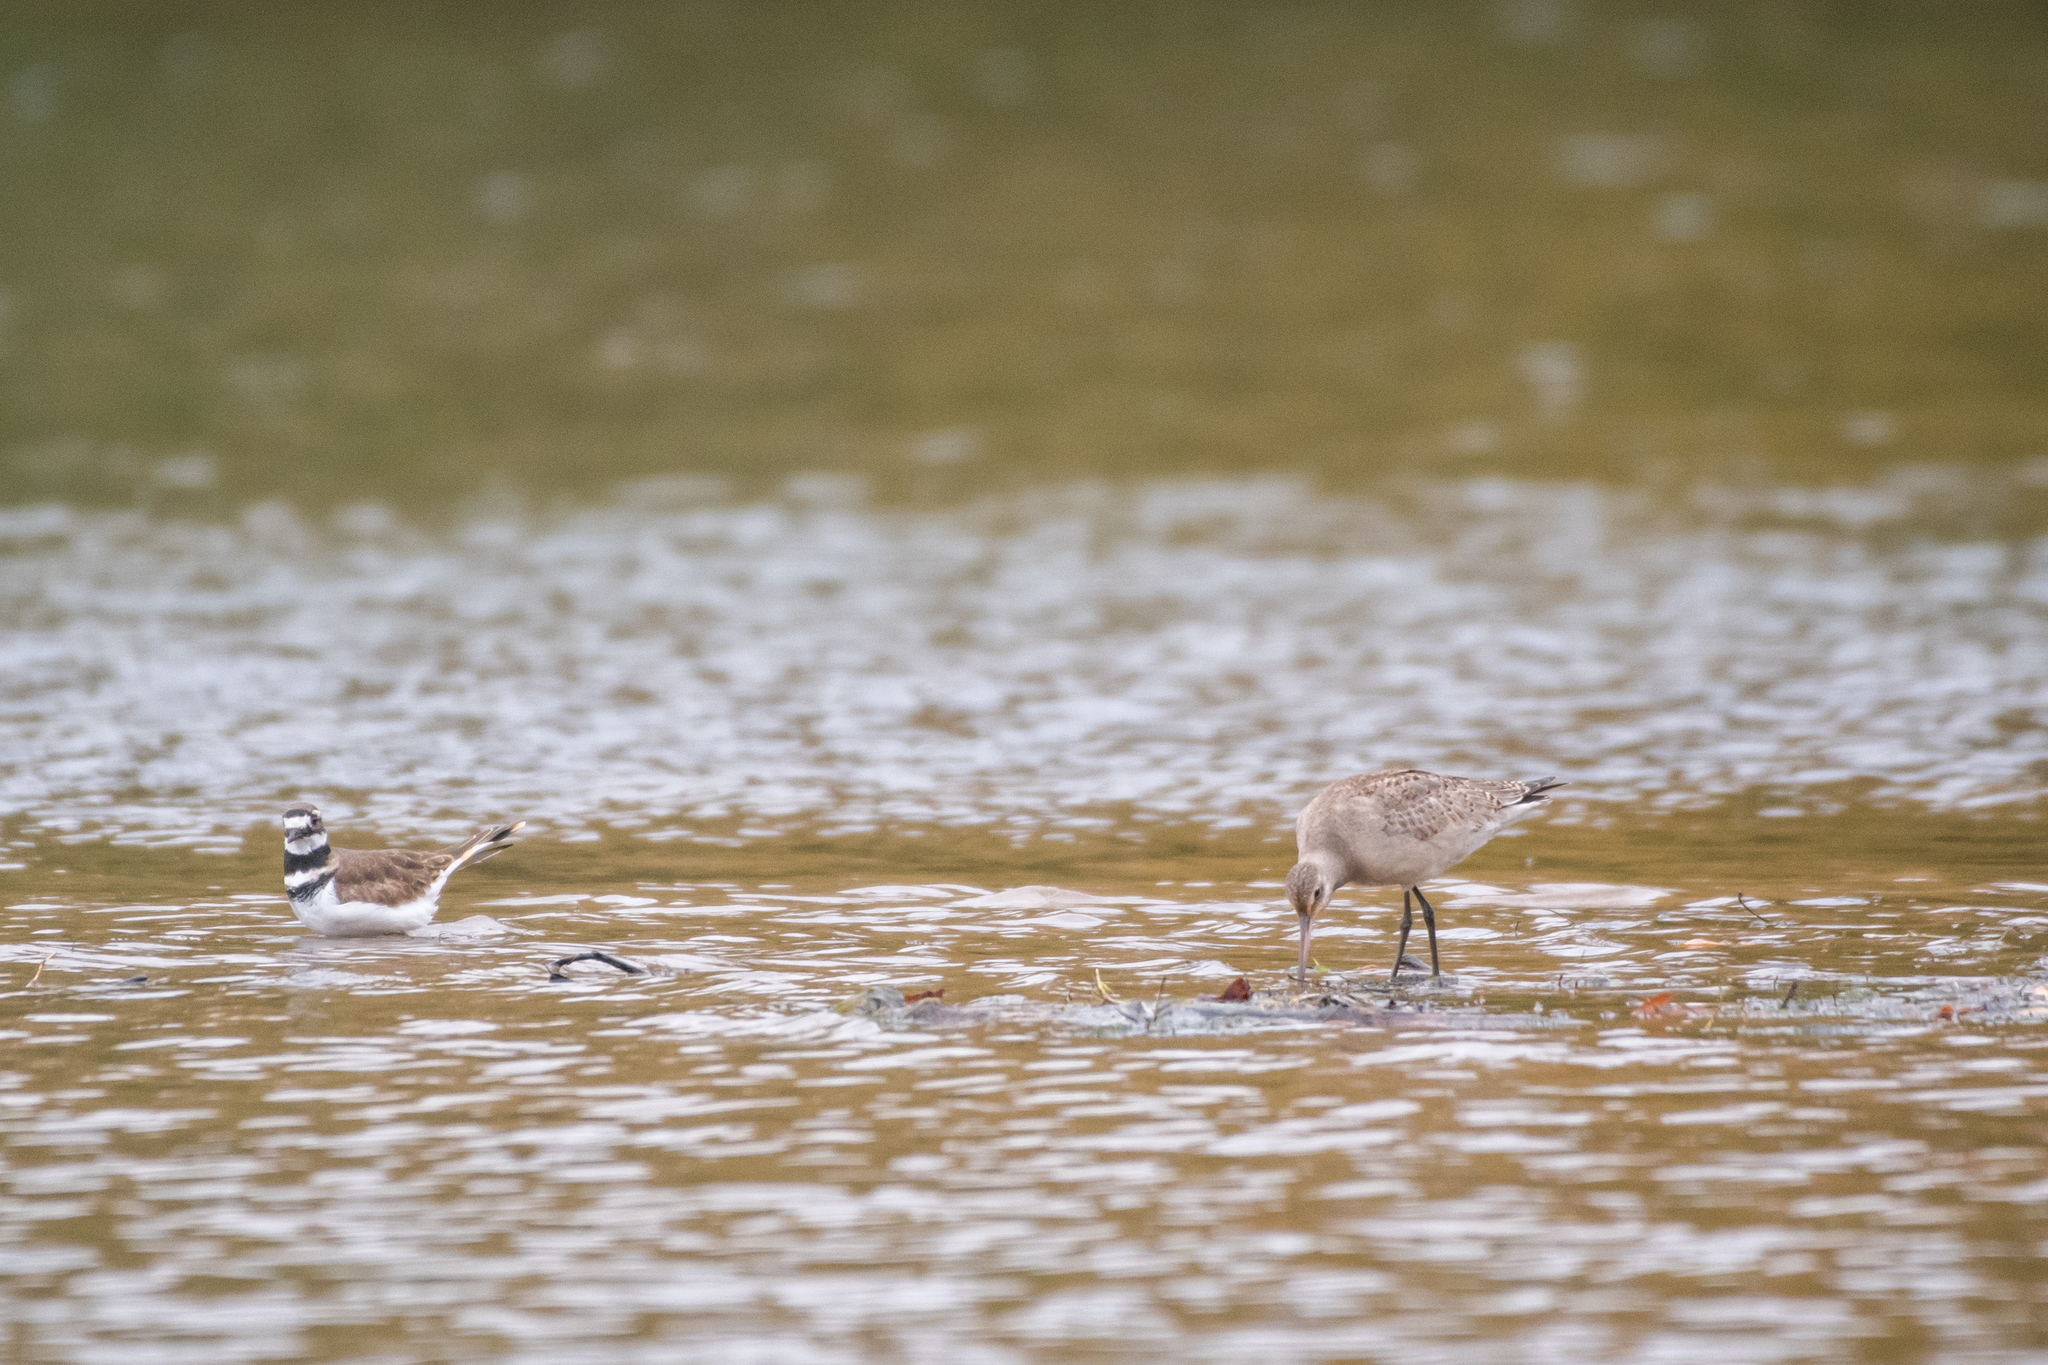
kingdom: Animalia
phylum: Chordata
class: Aves
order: Charadriiformes
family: Scolopacidae
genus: Limosa
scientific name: Limosa haemastica
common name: Hudsonian godwit
